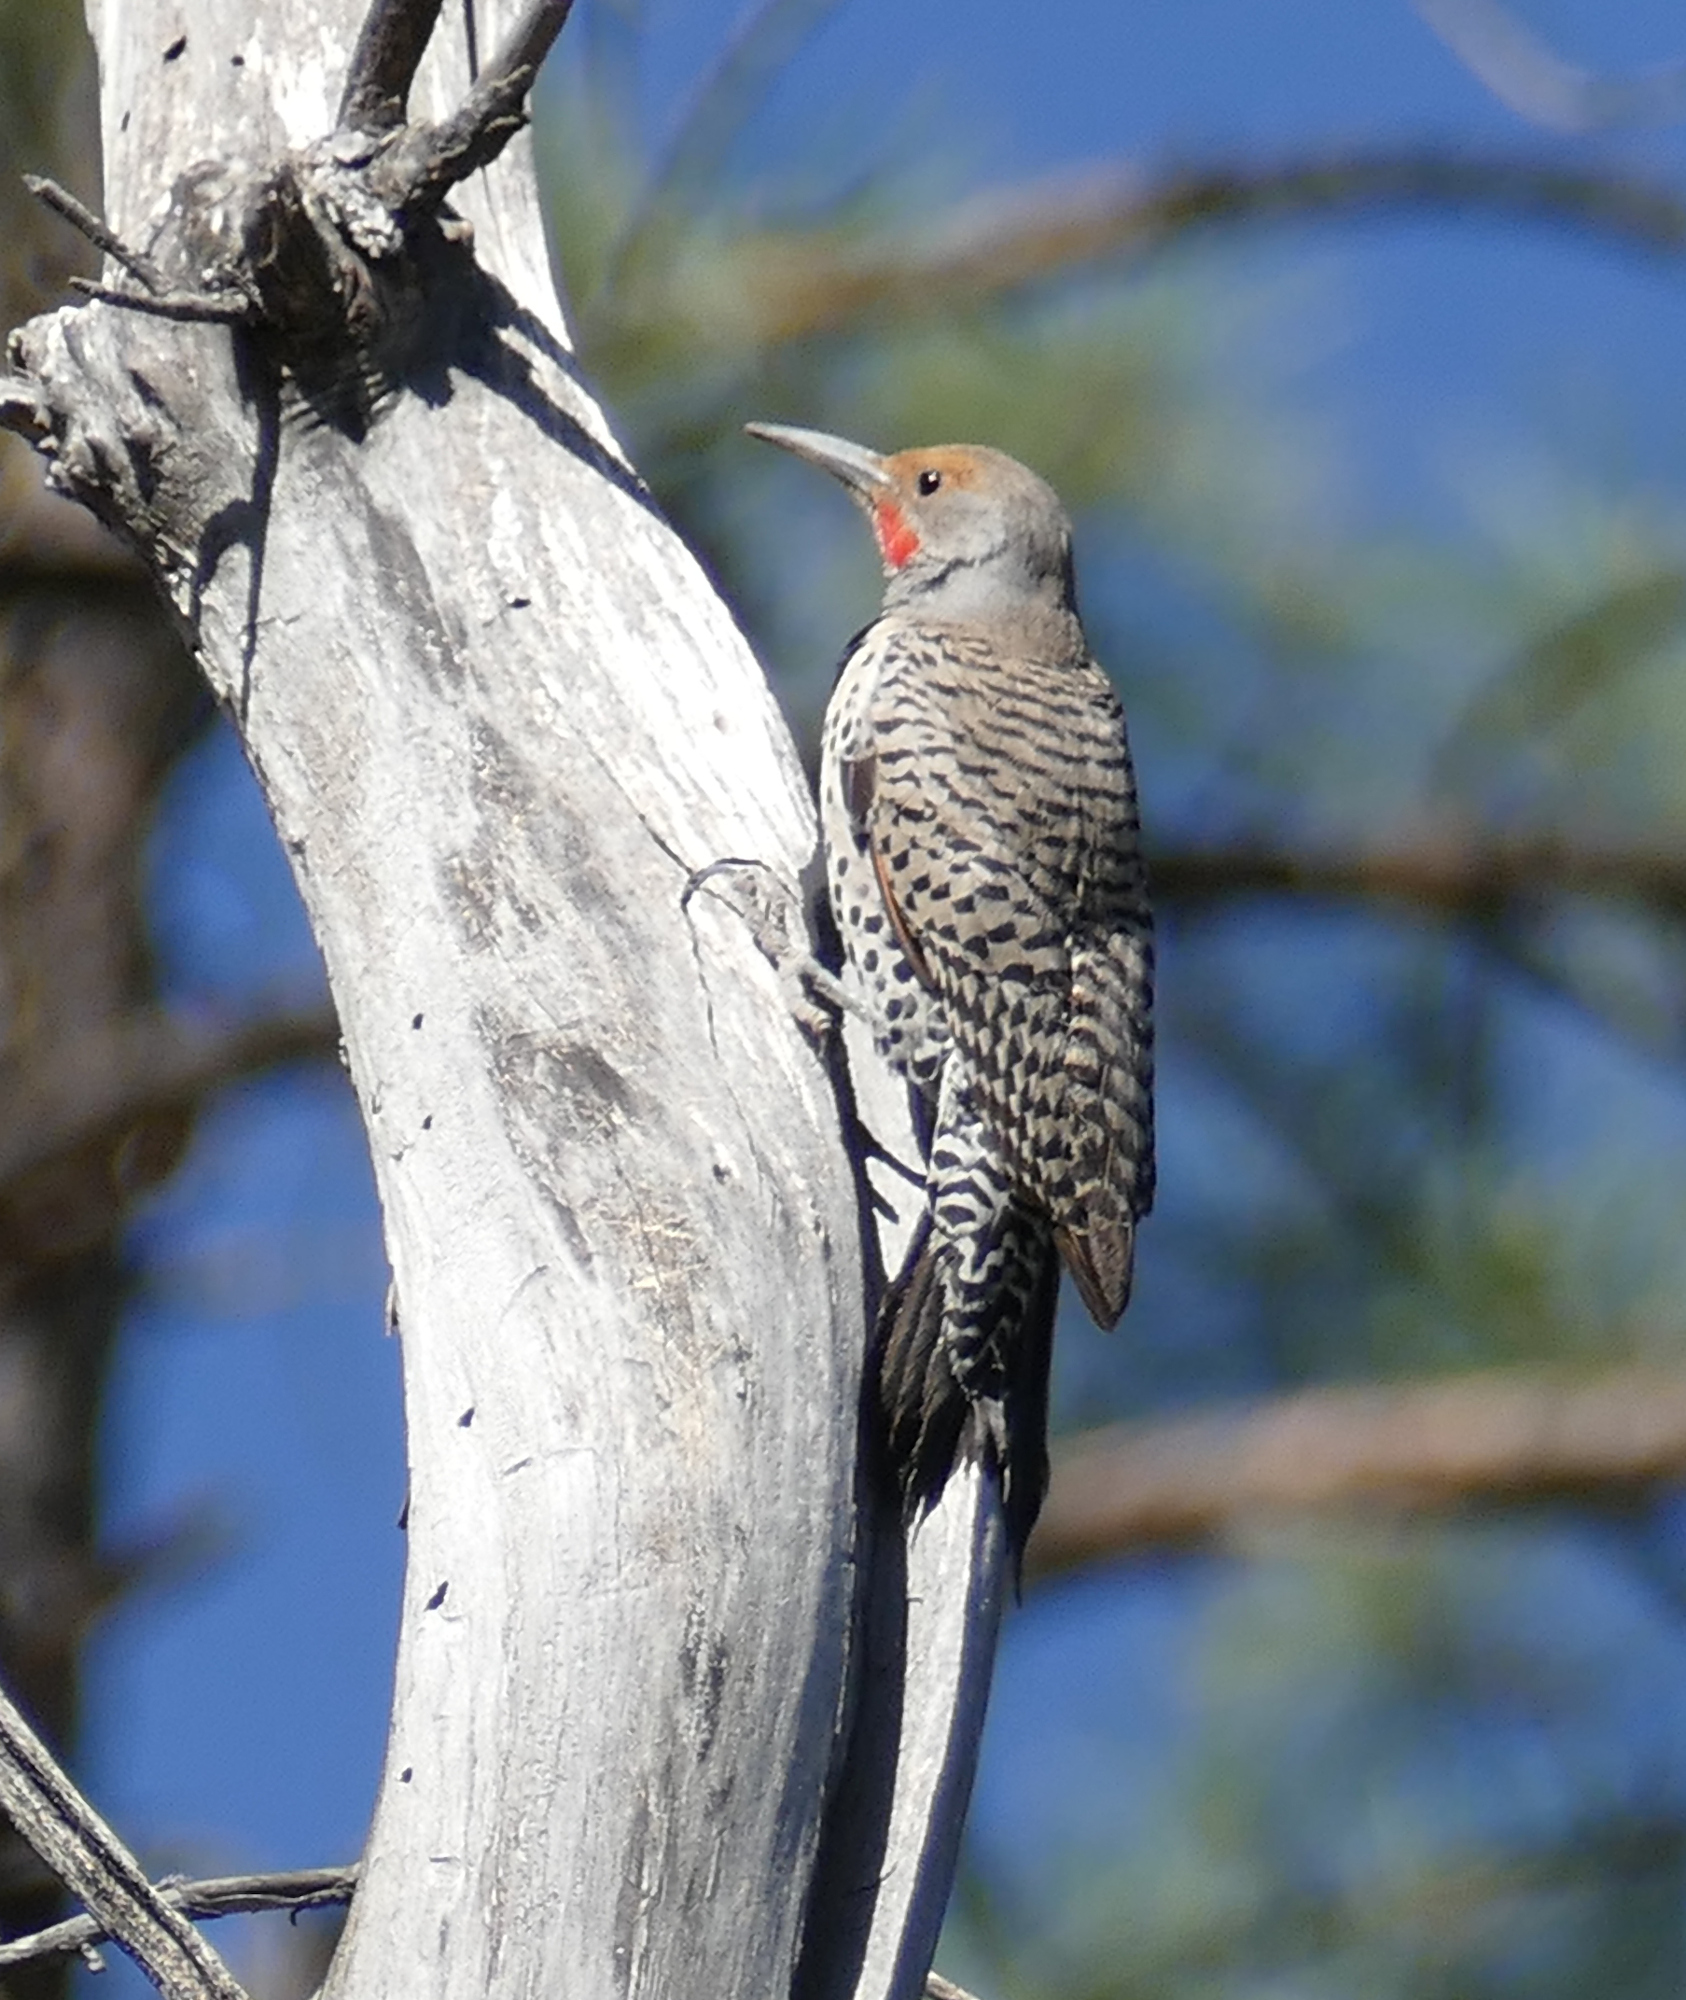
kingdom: Animalia
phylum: Chordata
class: Aves
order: Piciformes
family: Picidae
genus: Colaptes
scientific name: Colaptes auratus
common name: Northern flicker
